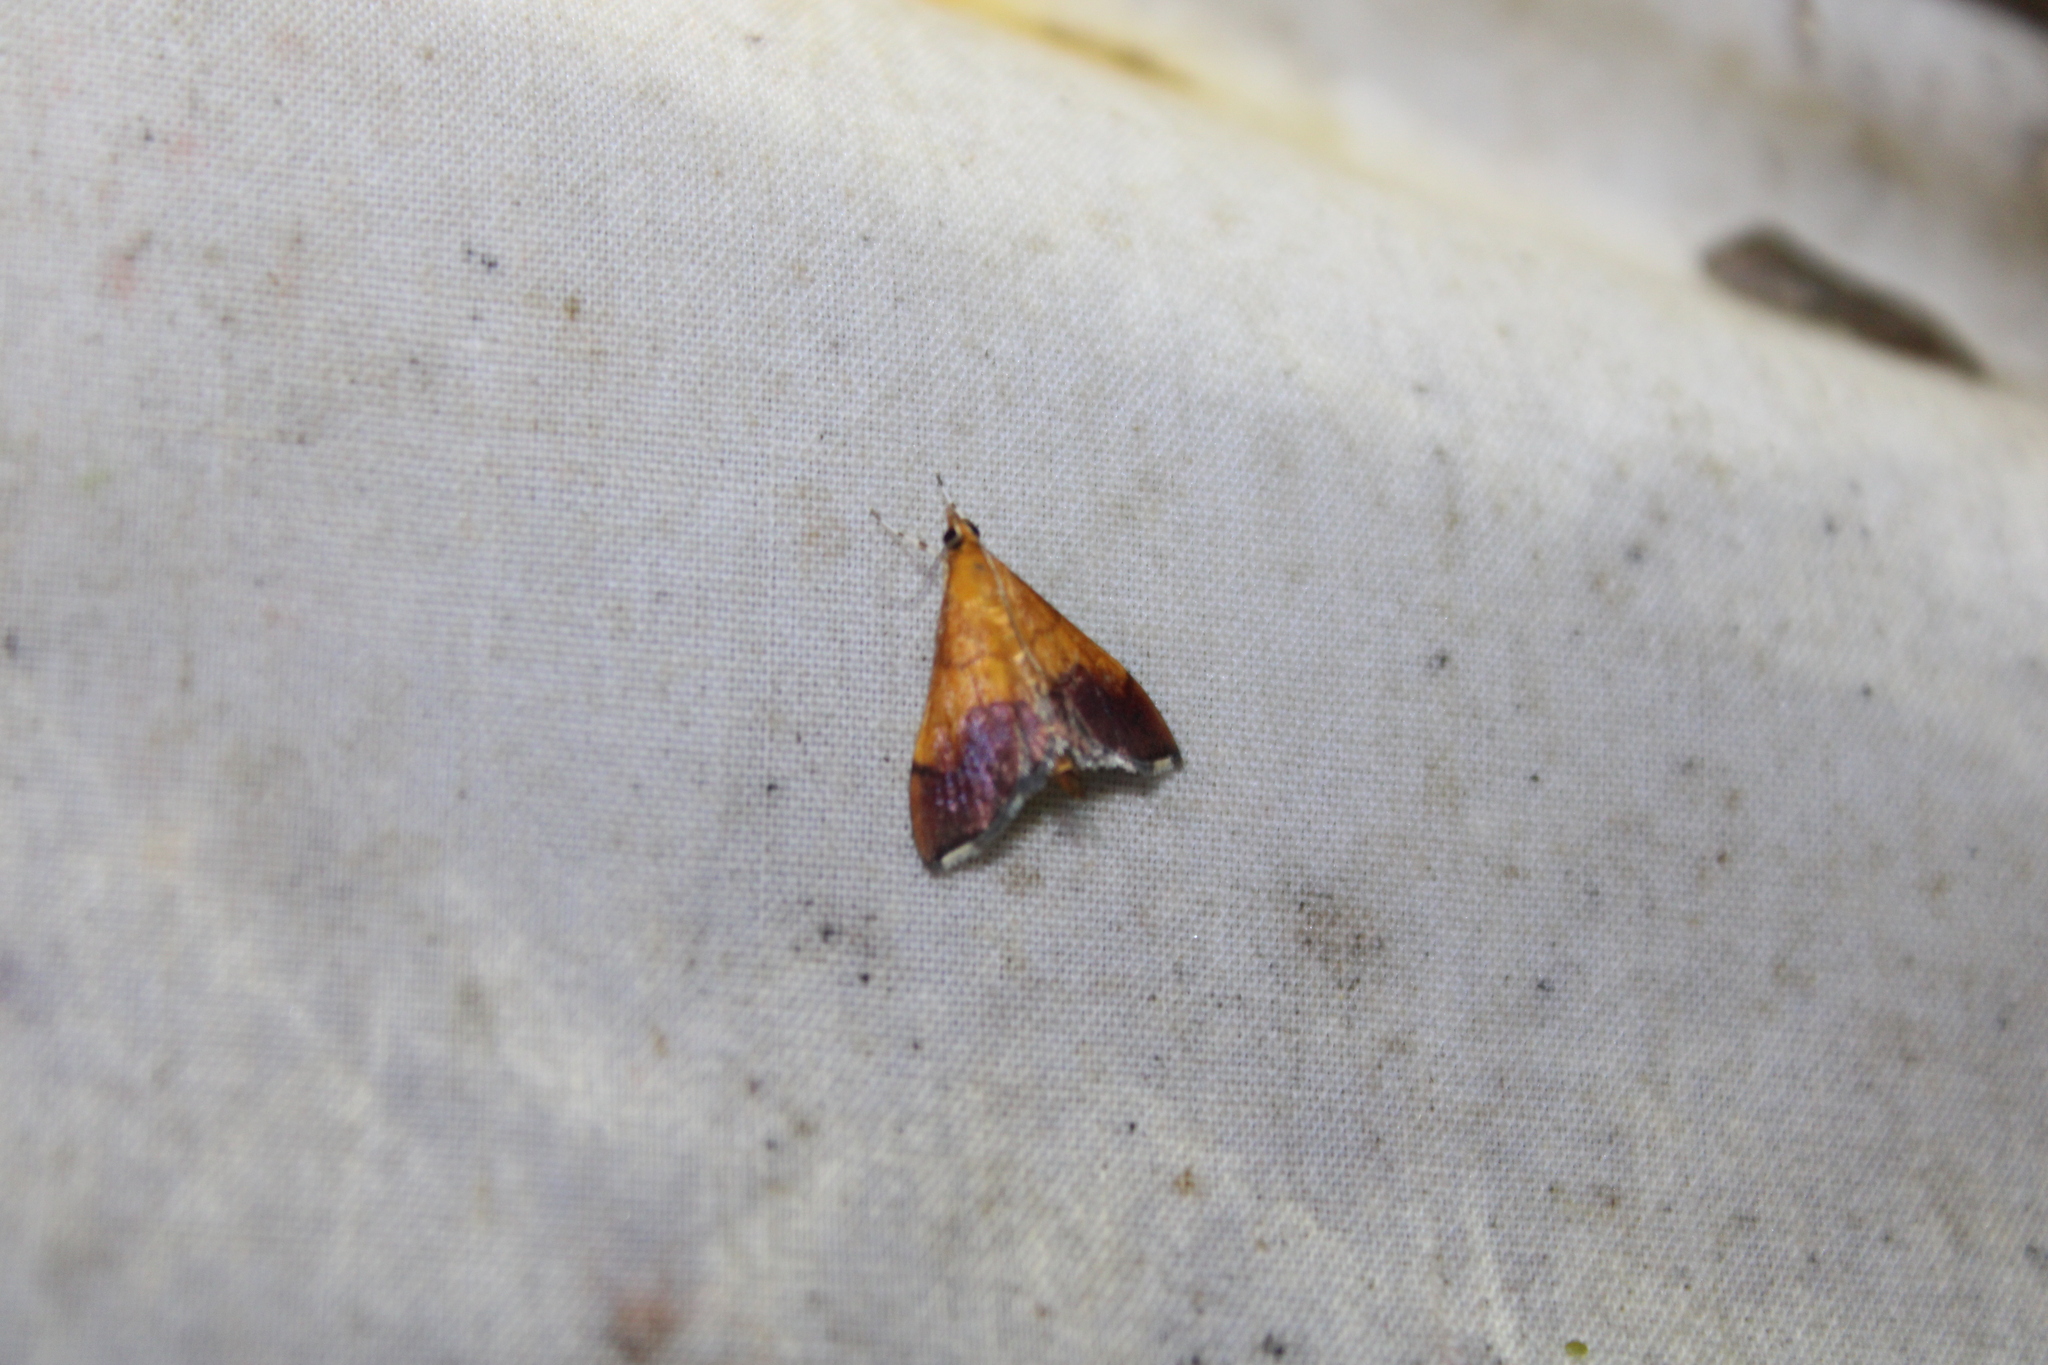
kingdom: Animalia
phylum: Arthropoda
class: Insecta
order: Lepidoptera
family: Crambidae
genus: Pyrausta
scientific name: Pyrausta bicoloralis
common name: Bicolored pyrausta moth
